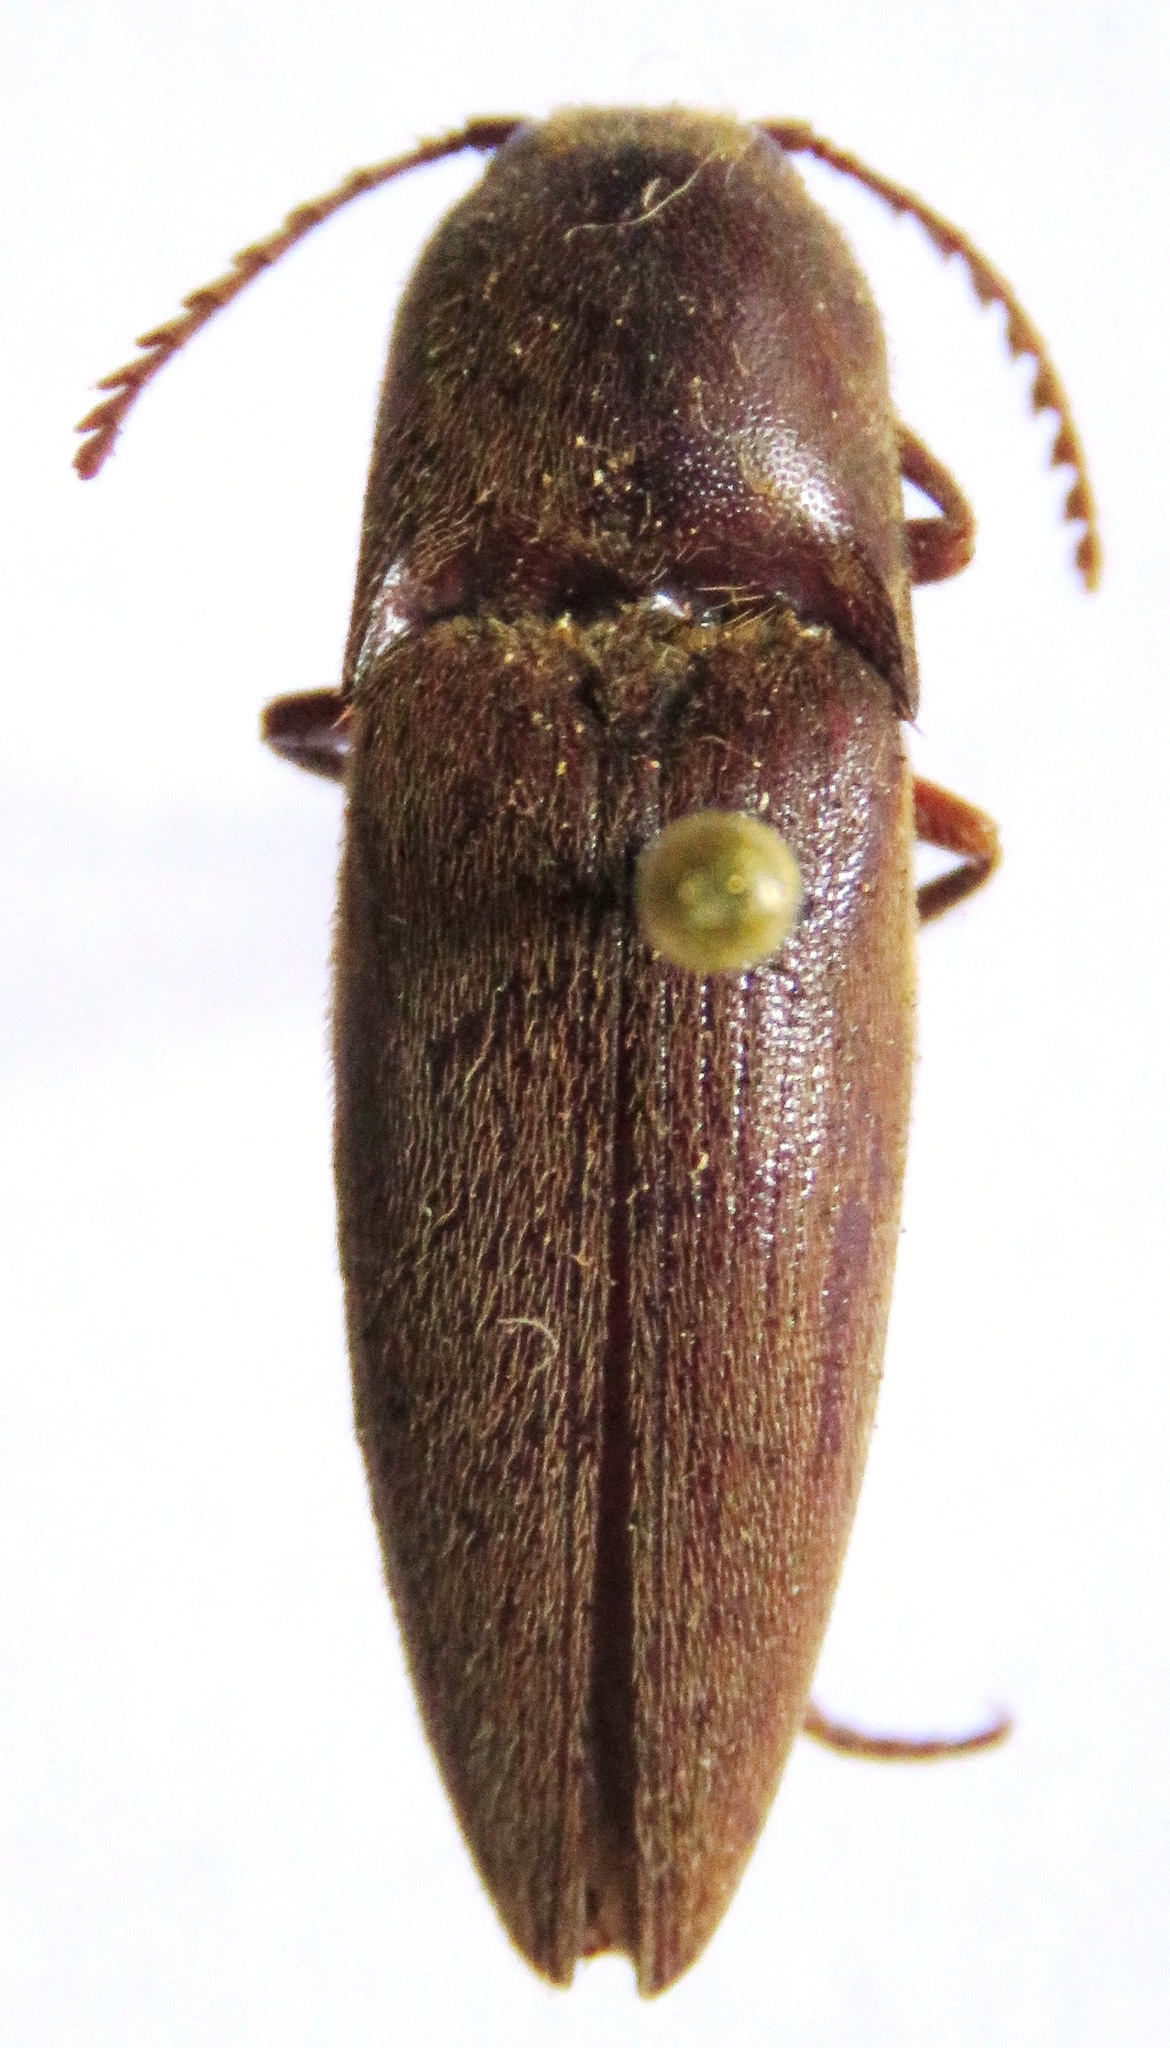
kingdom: Animalia
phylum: Arthropoda
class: Insecta
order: Coleoptera
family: Elateridae
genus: Orthostethus
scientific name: Orthostethus infuscatus
